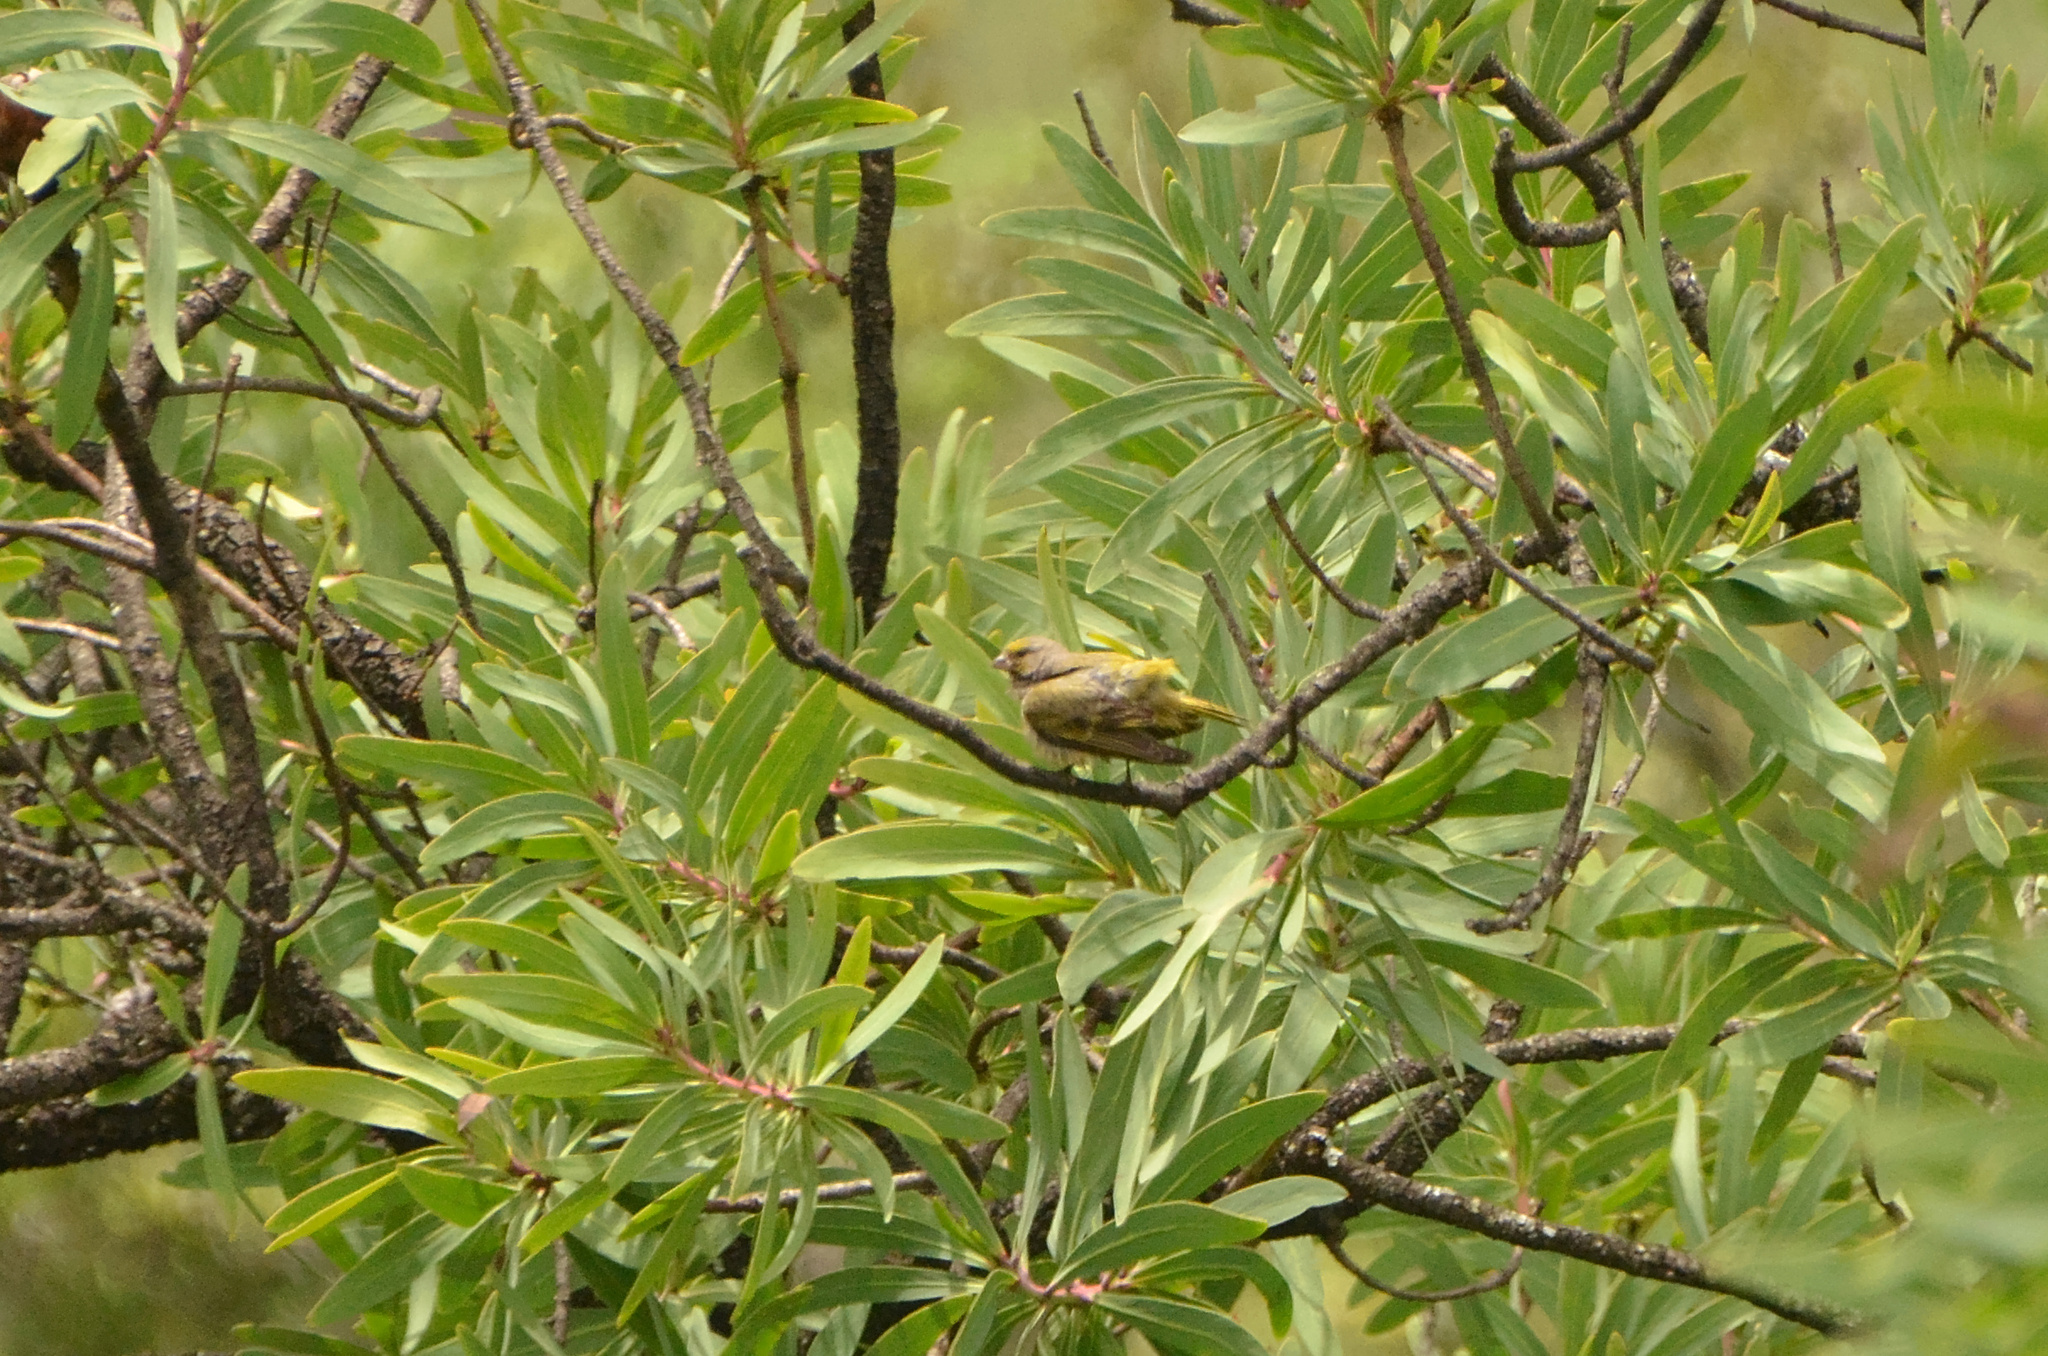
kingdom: Animalia
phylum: Chordata
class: Aves
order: Passeriformes
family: Fringillidae
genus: Serinus
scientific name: Serinus canicollis
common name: Cape canary
